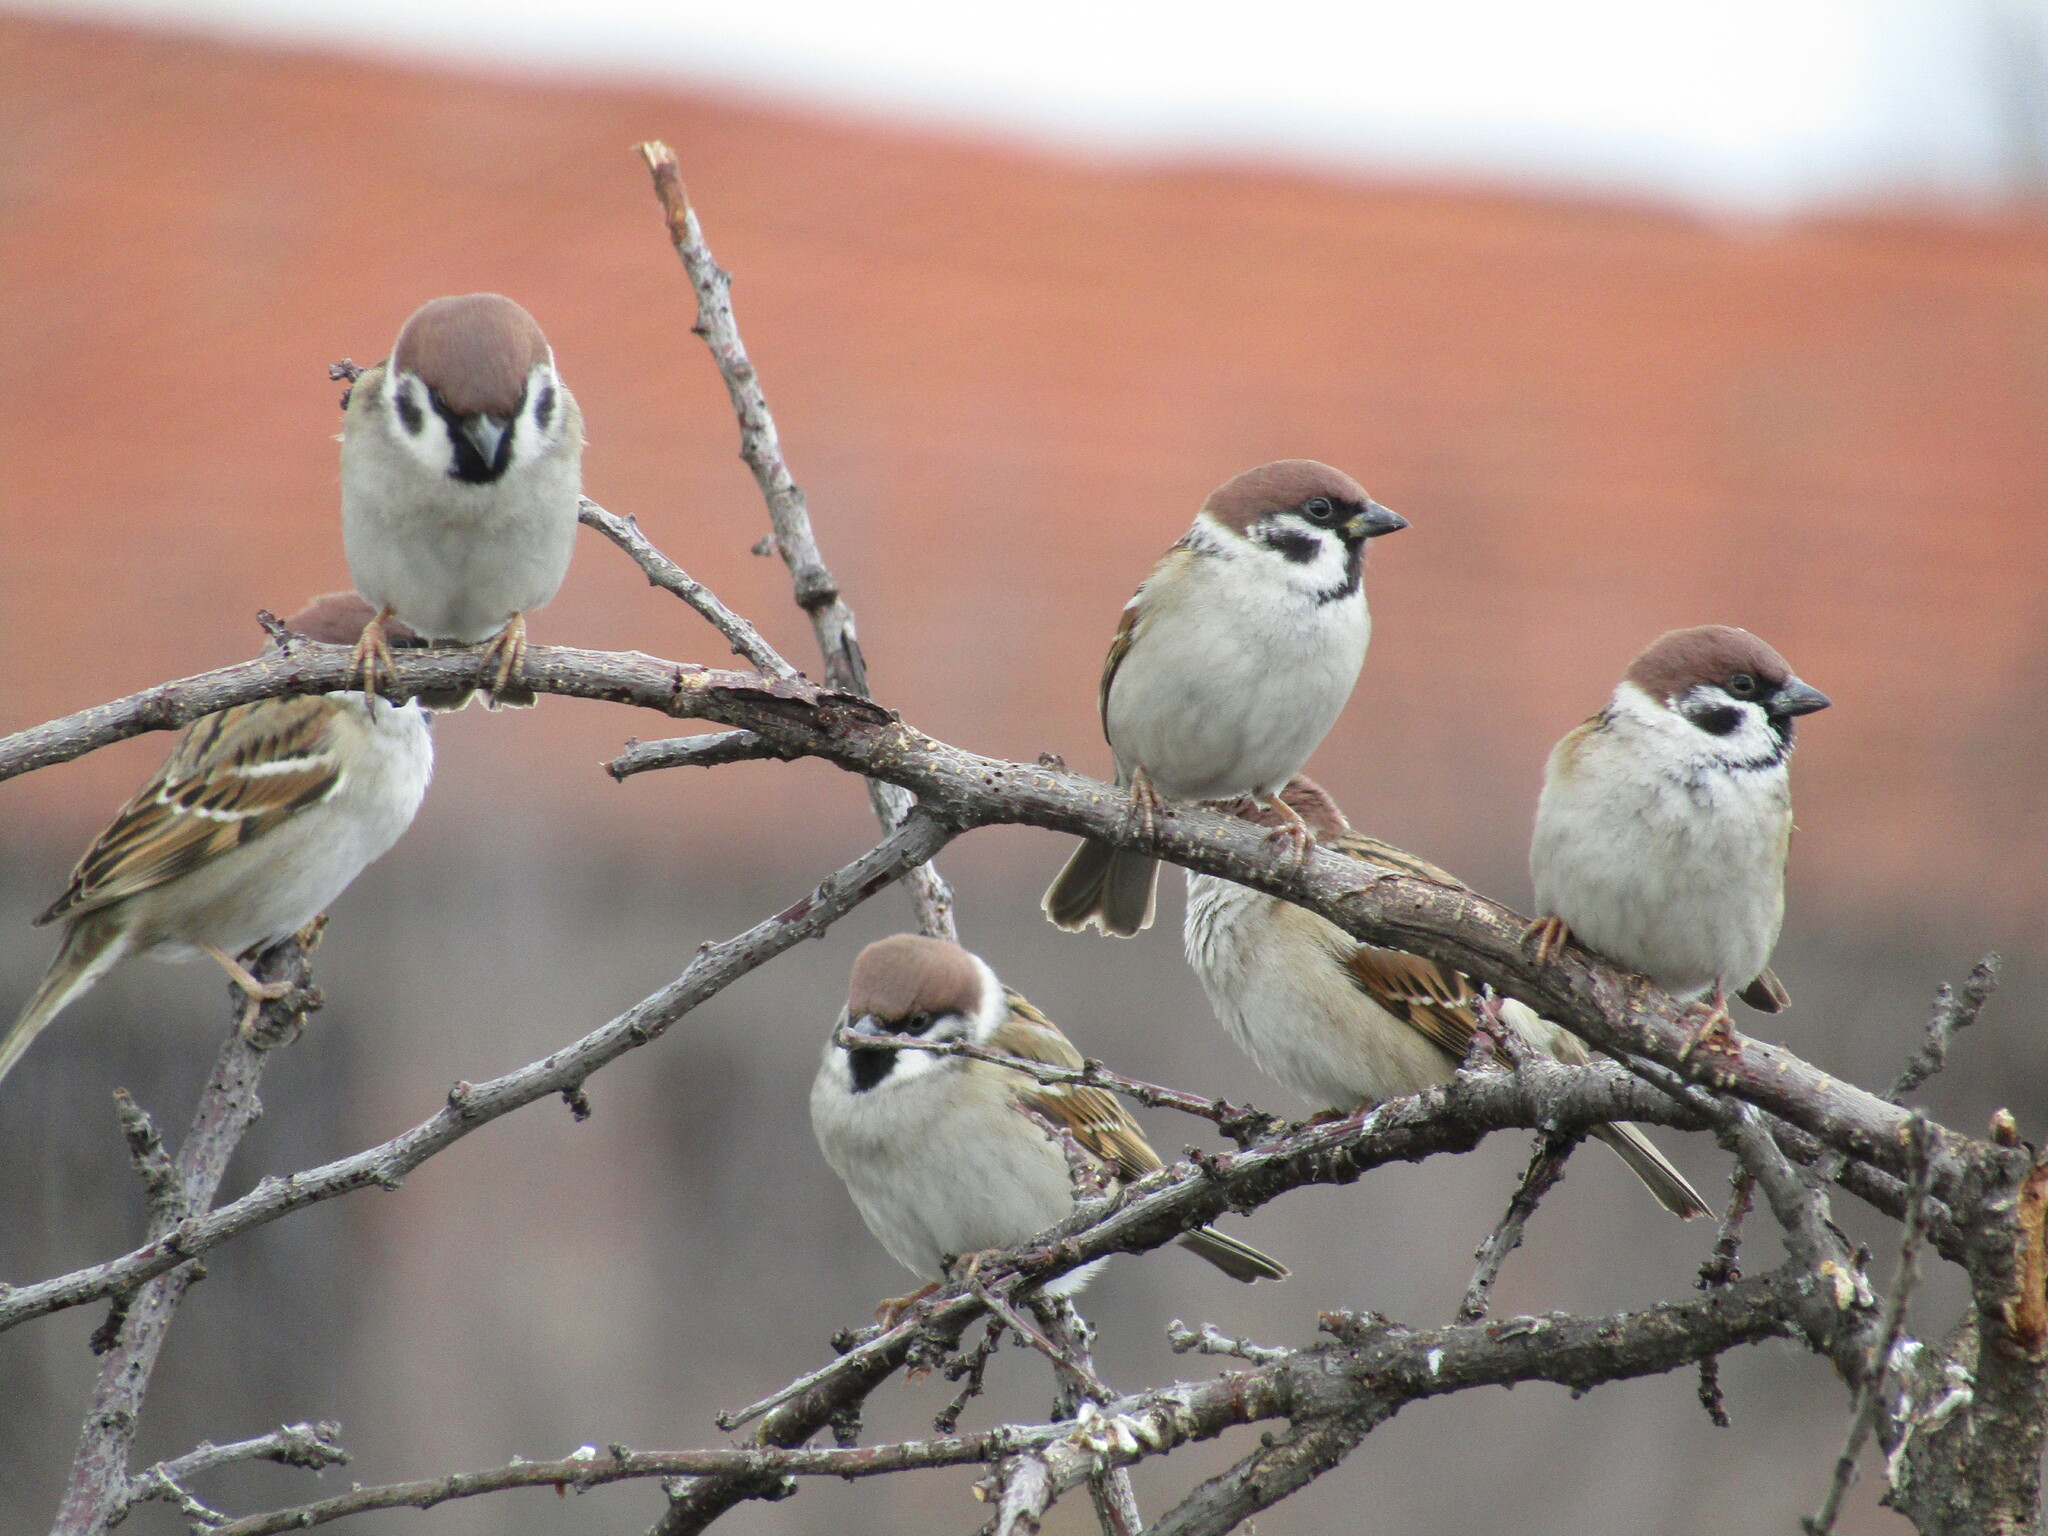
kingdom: Animalia
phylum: Chordata
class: Aves
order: Passeriformes
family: Passeridae
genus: Passer
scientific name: Passer montanus
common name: Eurasian tree sparrow
